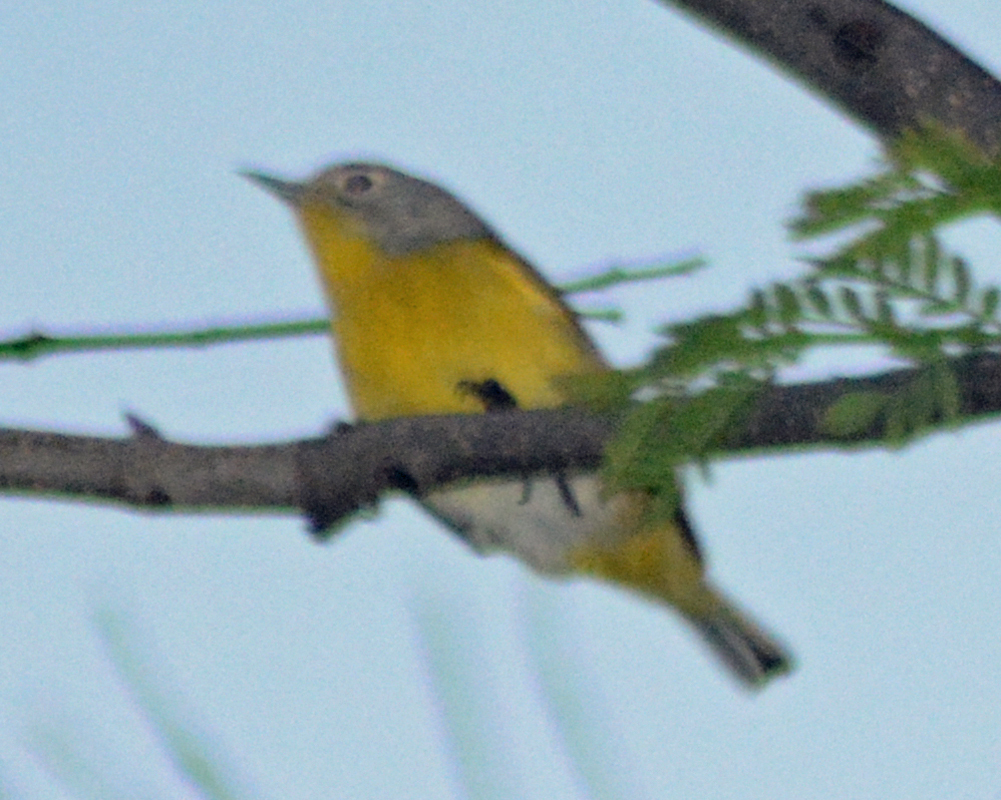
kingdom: Animalia
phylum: Chordata
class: Aves
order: Passeriformes
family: Parulidae
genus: Leiothlypis
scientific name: Leiothlypis ruficapilla
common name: Nashville warbler
